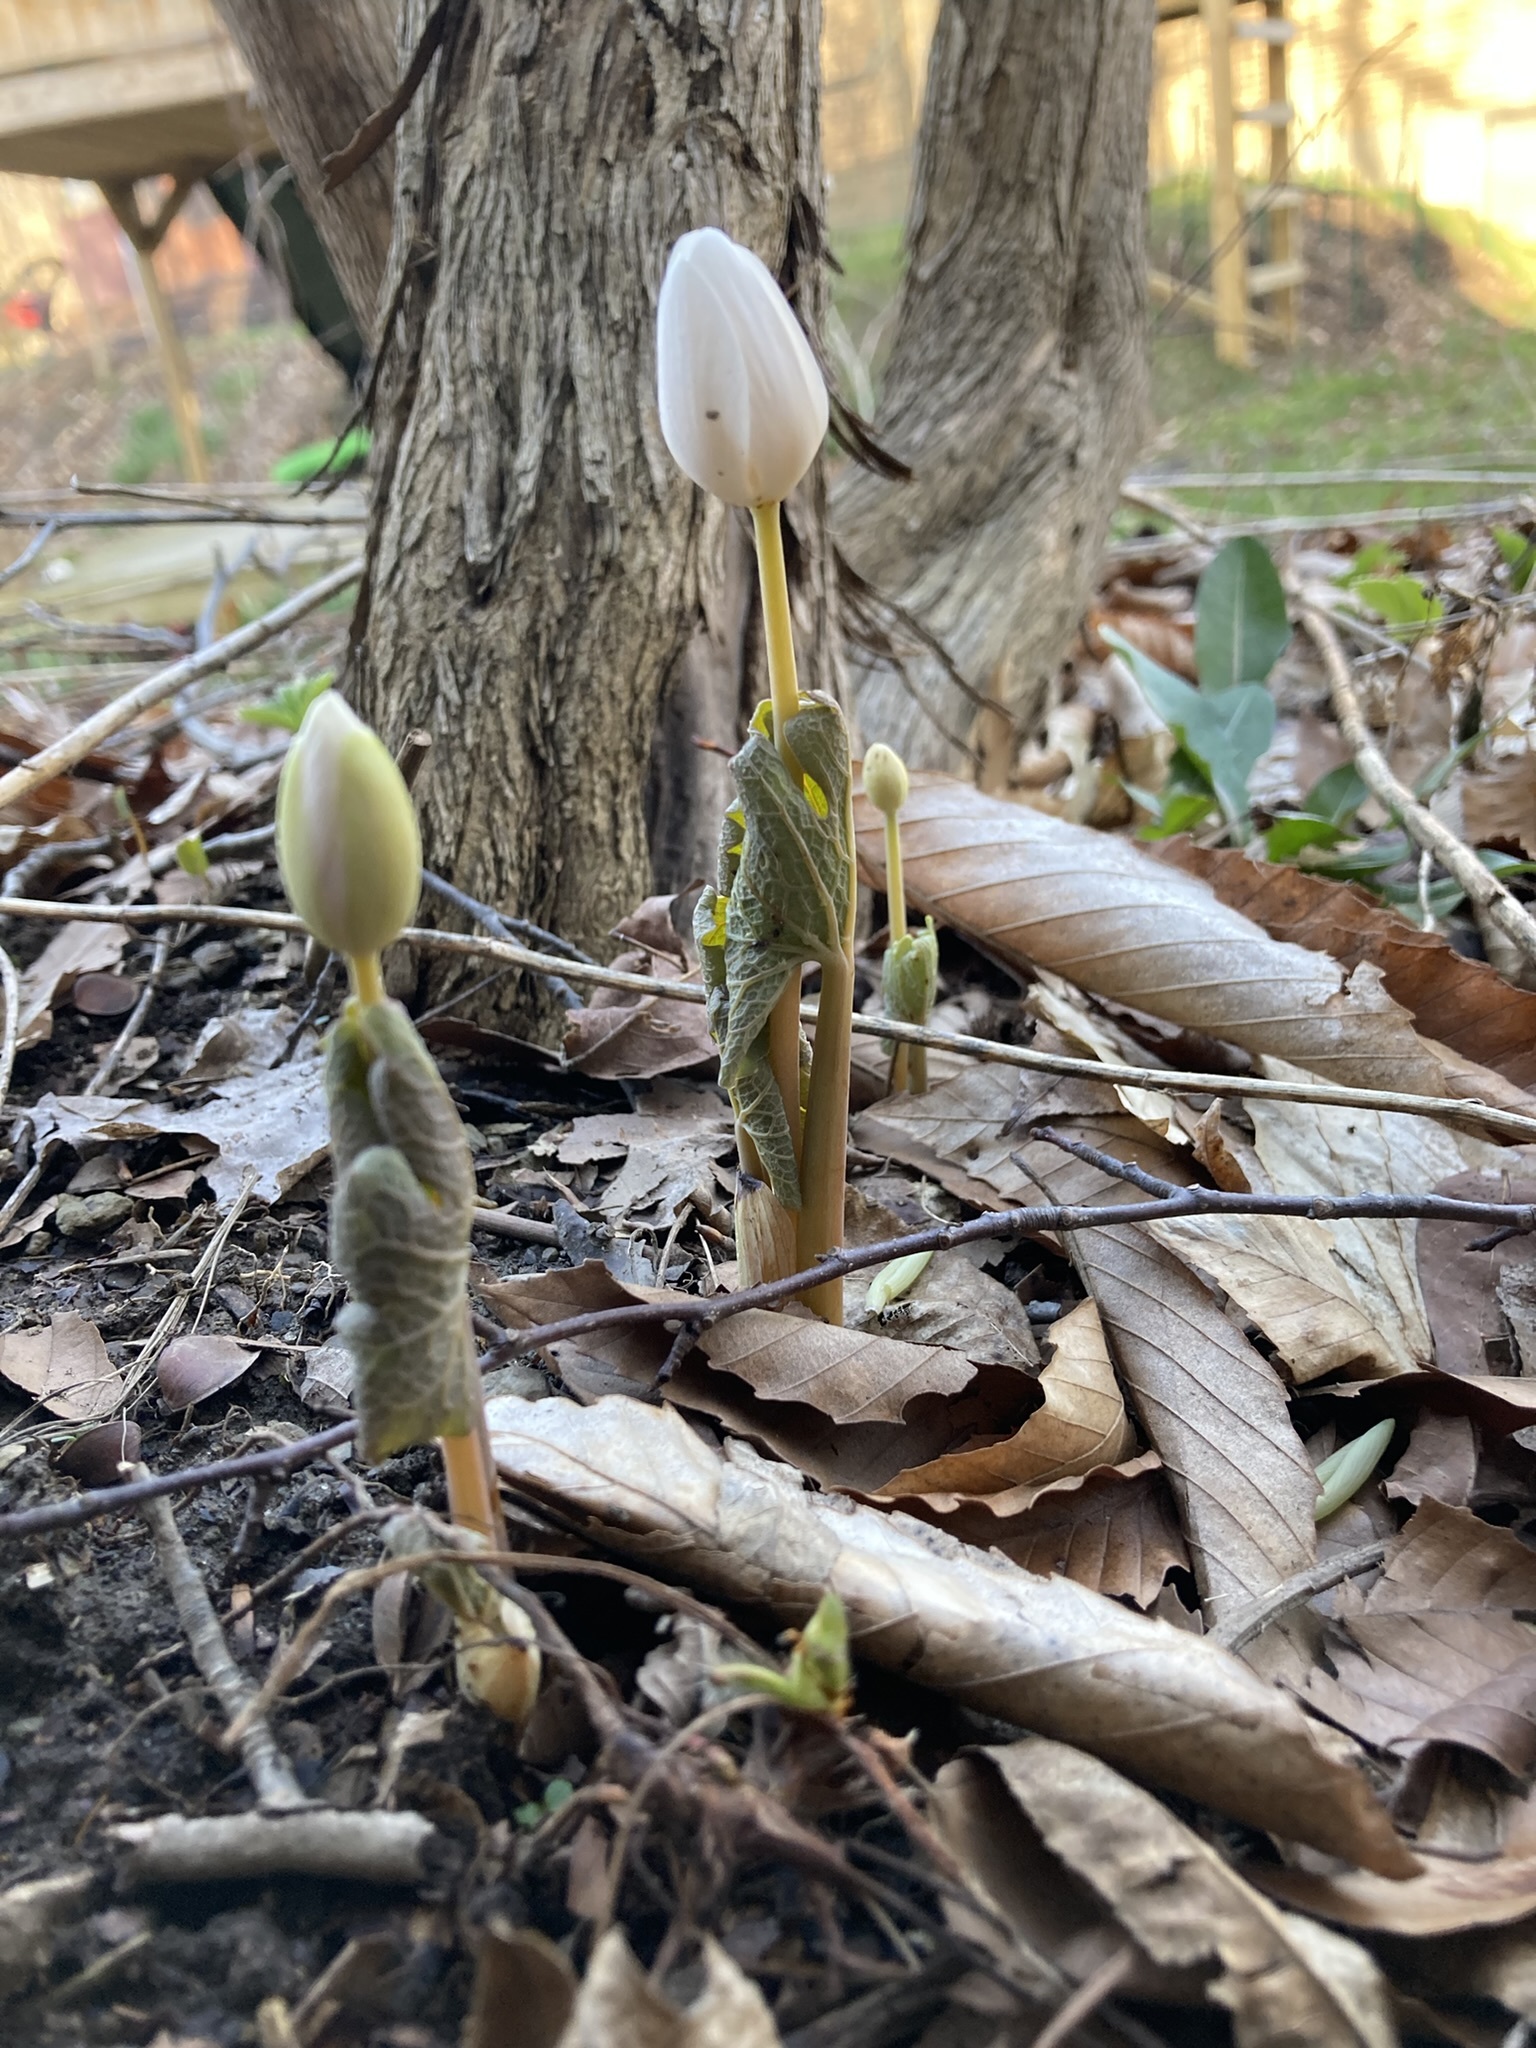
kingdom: Plantae
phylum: Tracheophyta
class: Magnoliopsida
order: Ranunculales
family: Papaveraceae
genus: Sanguinaria
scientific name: Sanguinaria canadensis
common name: Bloodroot
